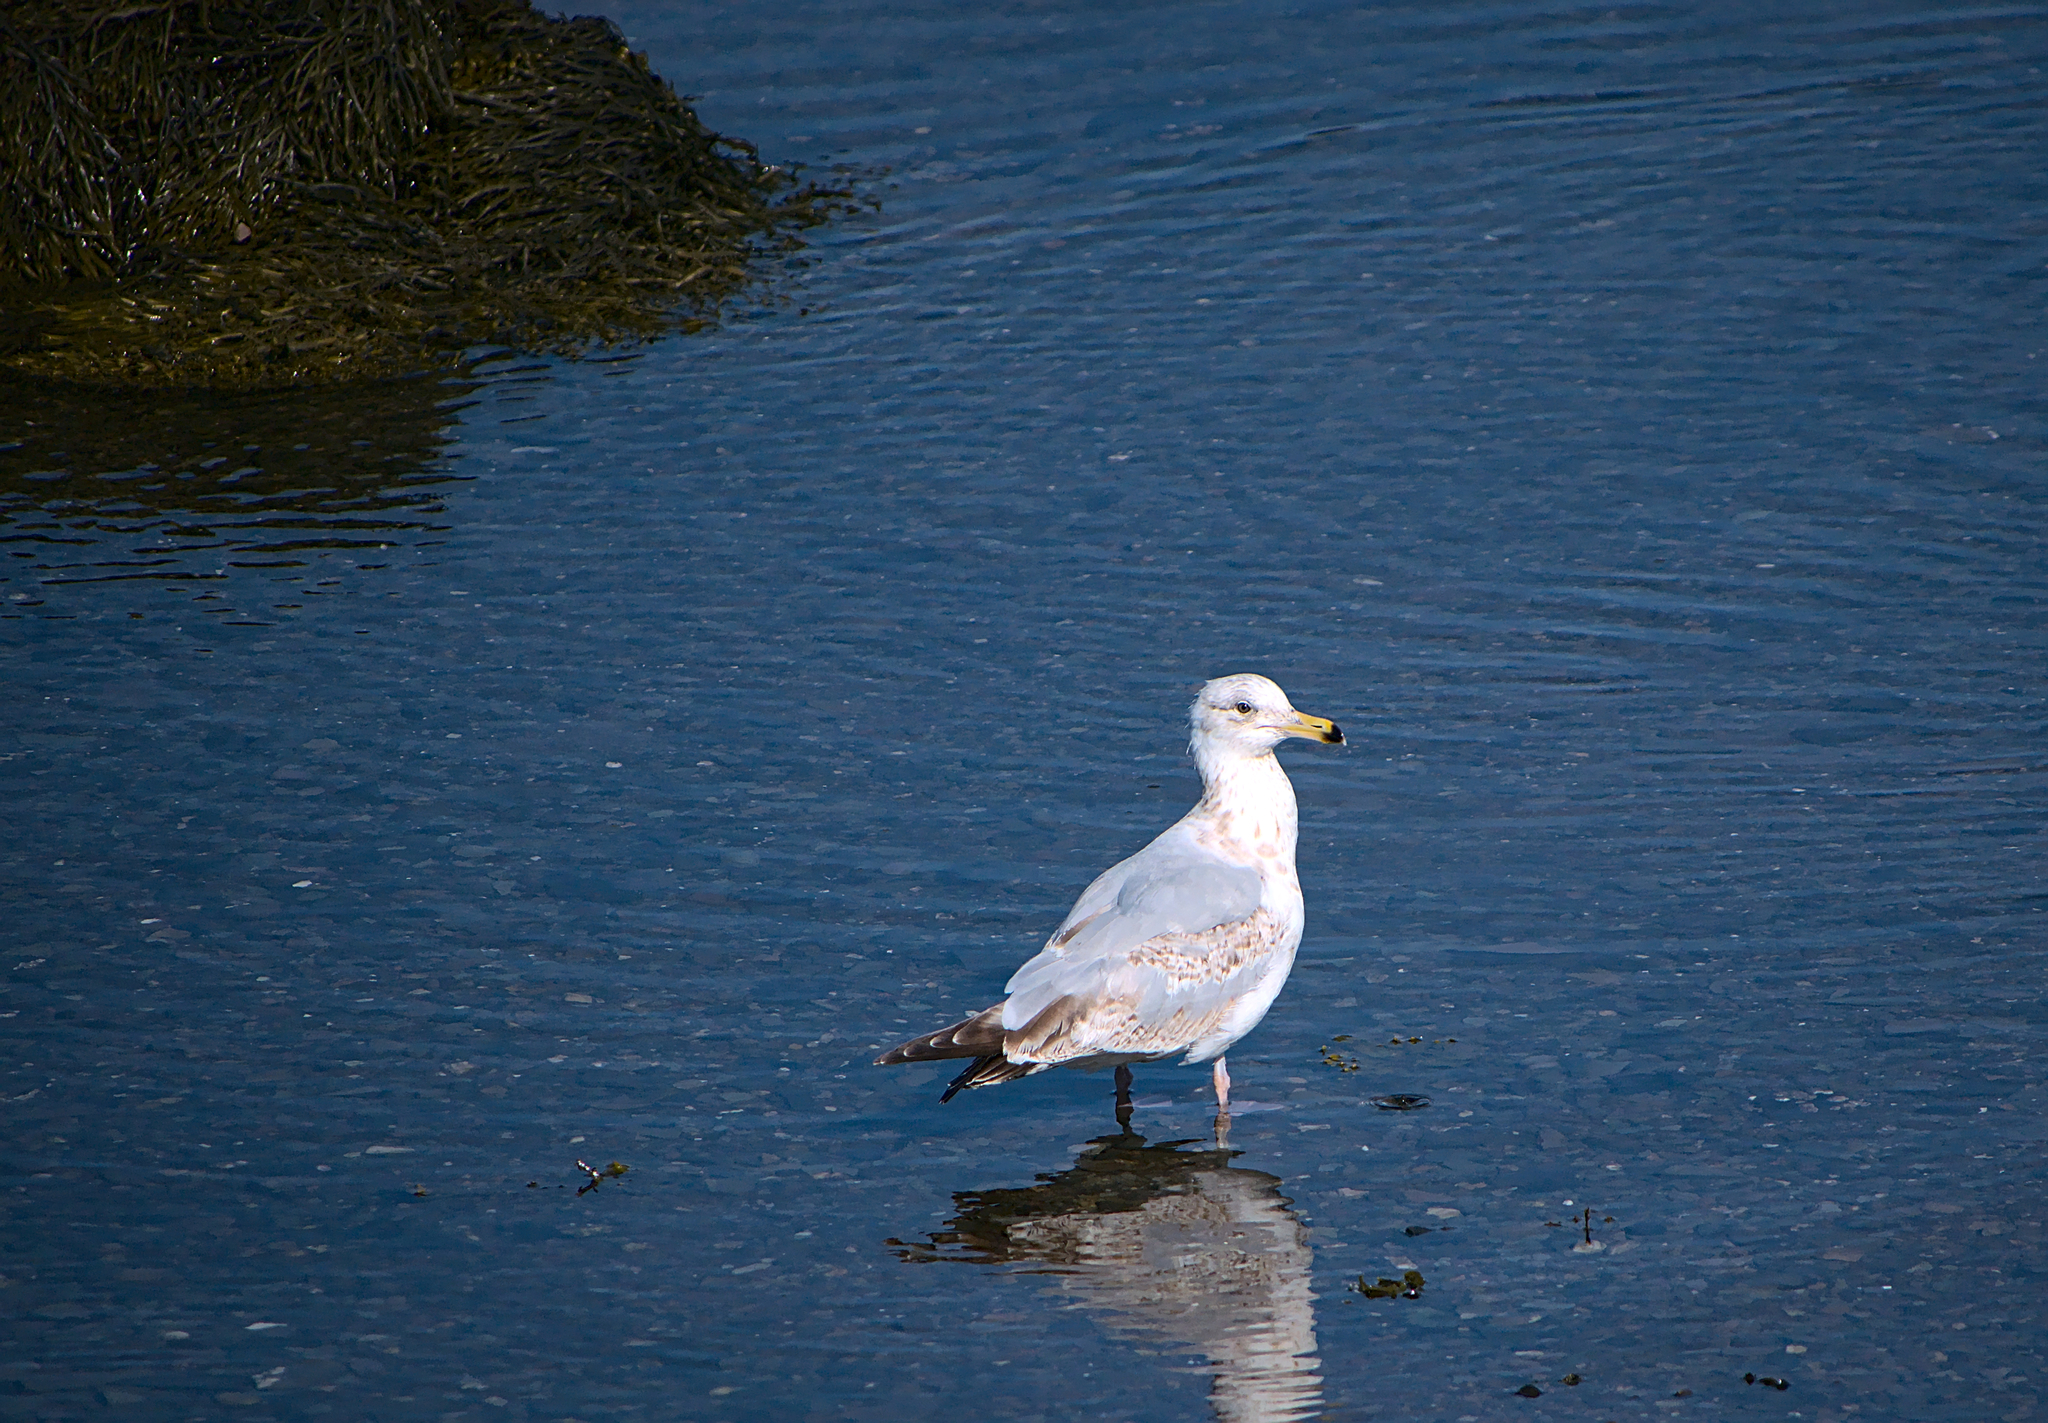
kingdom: Animalia
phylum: Chordata
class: Aves
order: Charadriiformes
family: Laridae
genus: Larus
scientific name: Larus delawarensis
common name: Ring-billed gull
